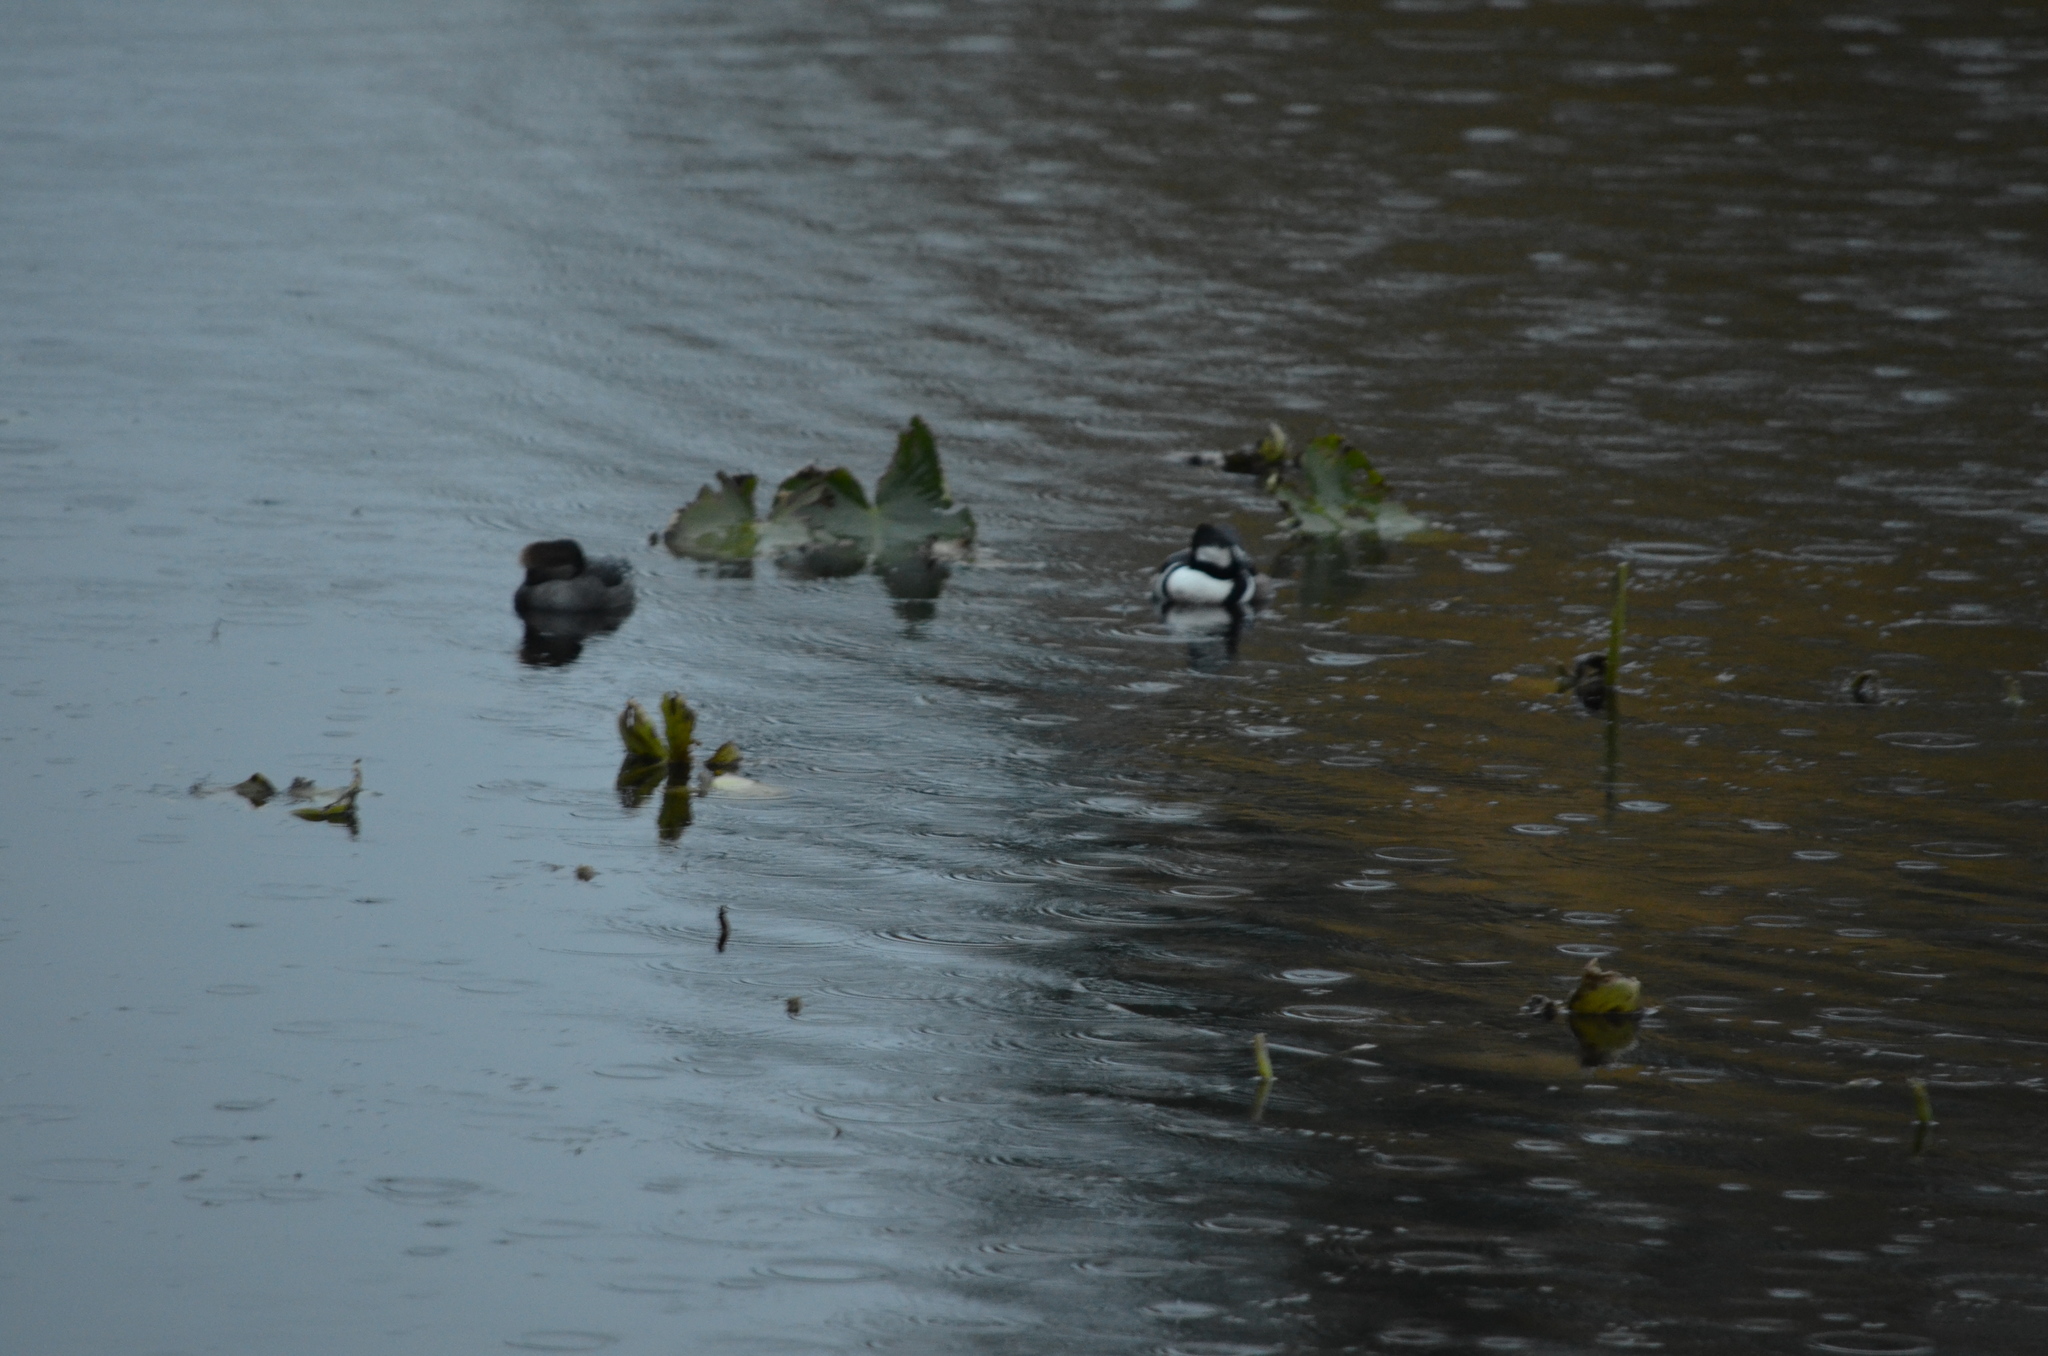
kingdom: Animalia
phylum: Chordata
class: Aves
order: Anseriformes
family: Anatidae
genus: Lophodytes
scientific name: Lophodytes cucullatus
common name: Hooded merganser
